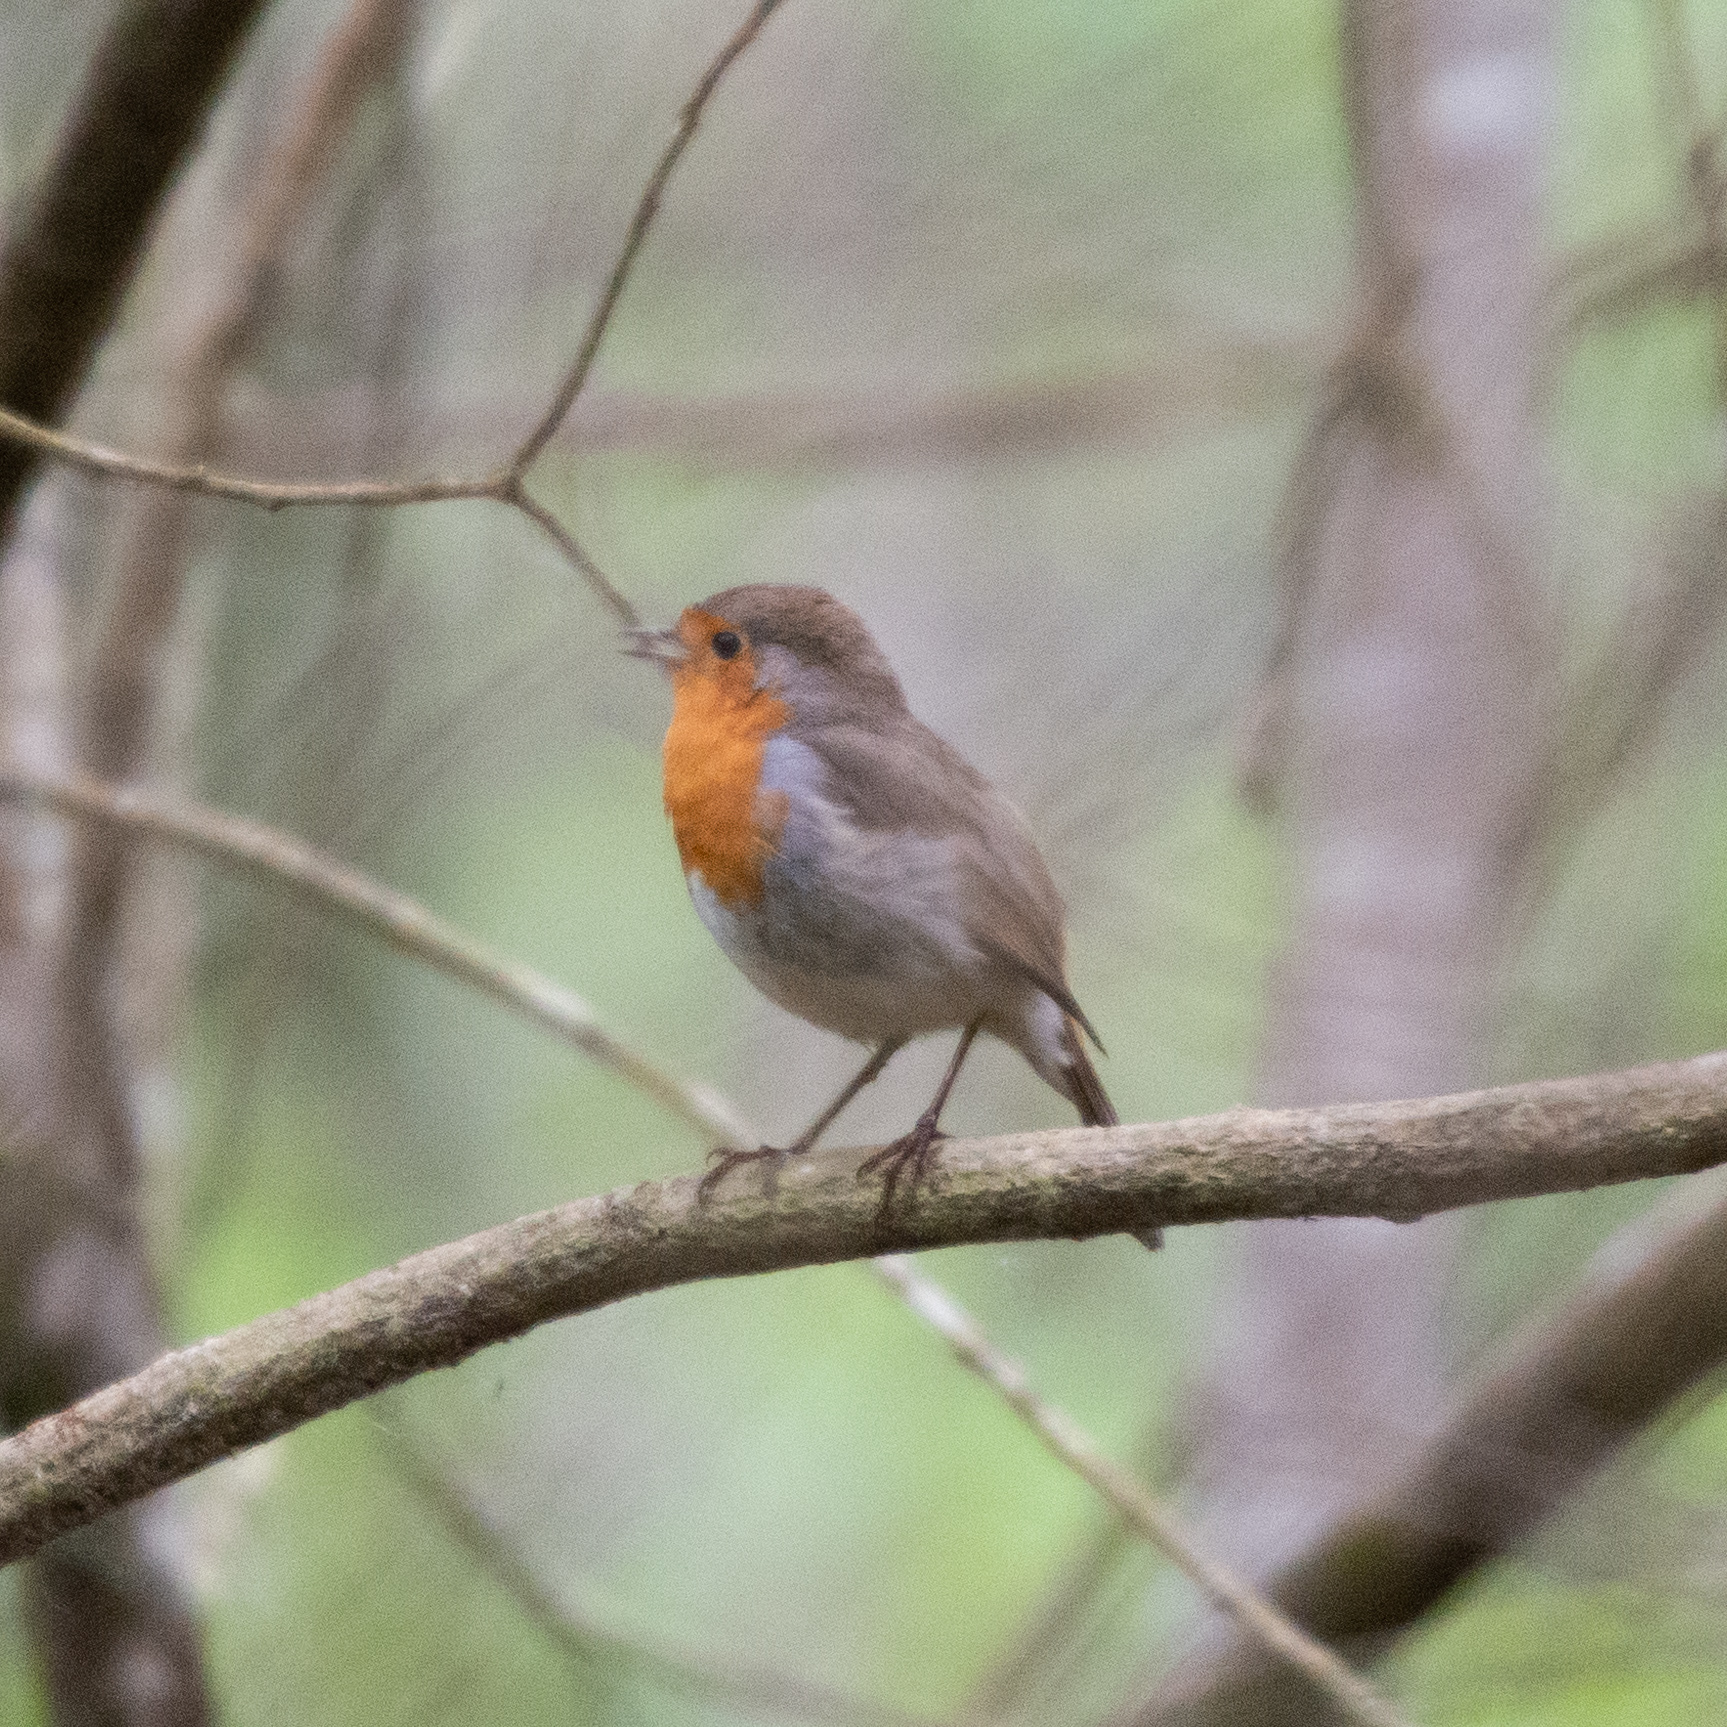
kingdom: Animalia
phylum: Chordata
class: Aves
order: Passeriformes
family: Muscicapidae
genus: Erithacus
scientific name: Erithacus rubecula
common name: European robin
